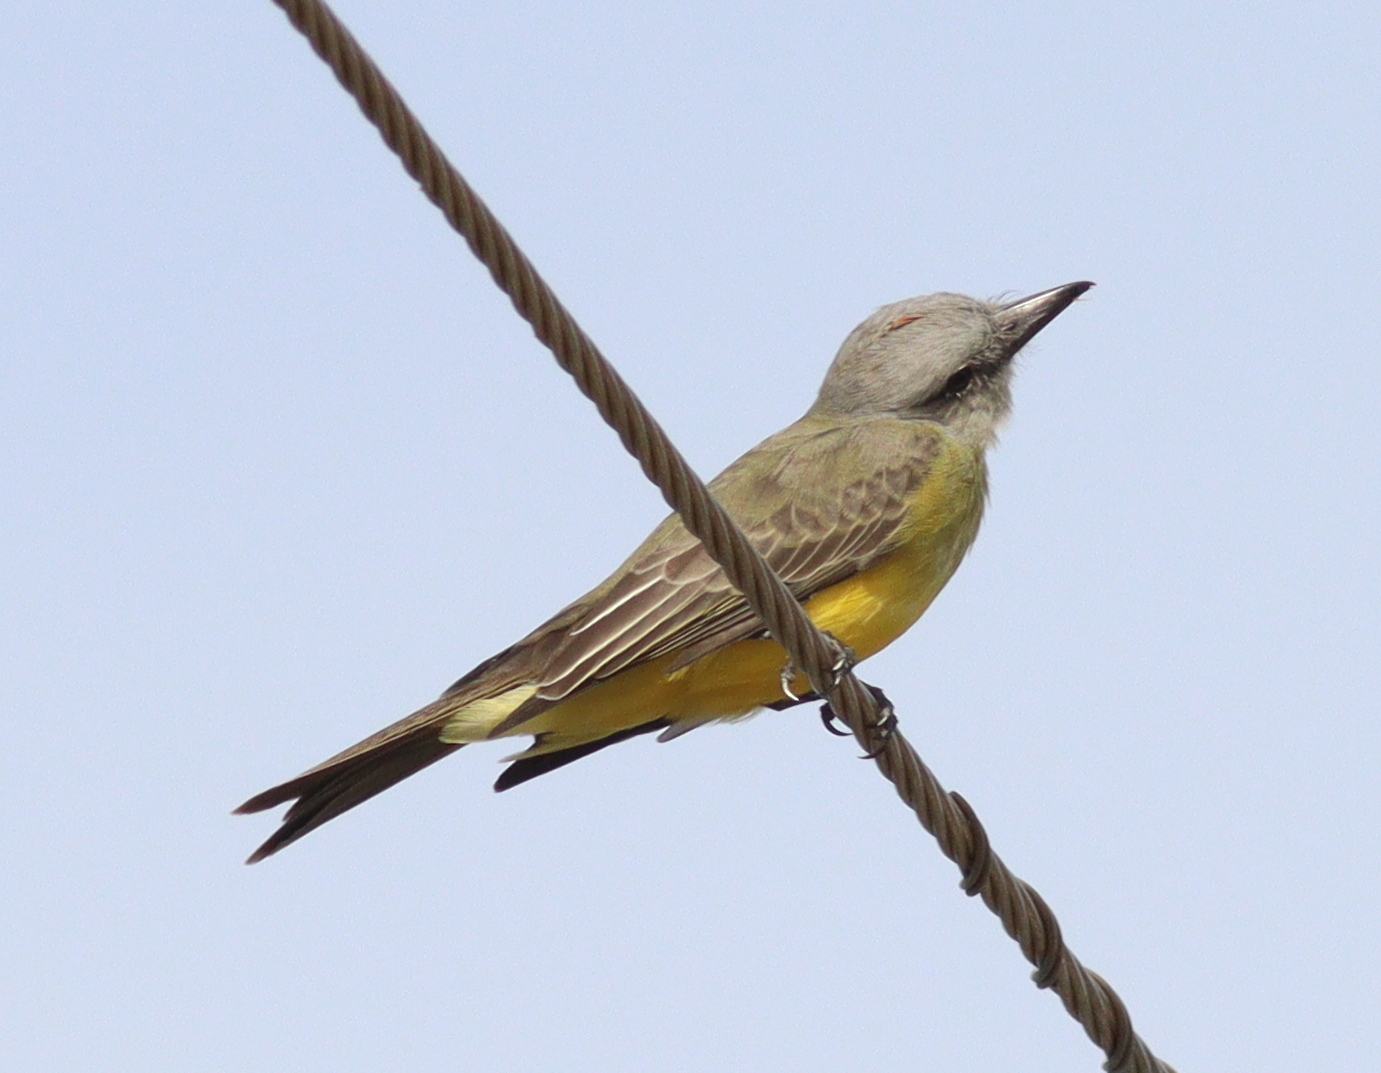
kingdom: Animalia
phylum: Chordata
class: Aves
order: Passeriformes
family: Tyrannidae
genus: Tyrannus
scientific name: Tyrannus melancholicus
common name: Tropical kingbird
